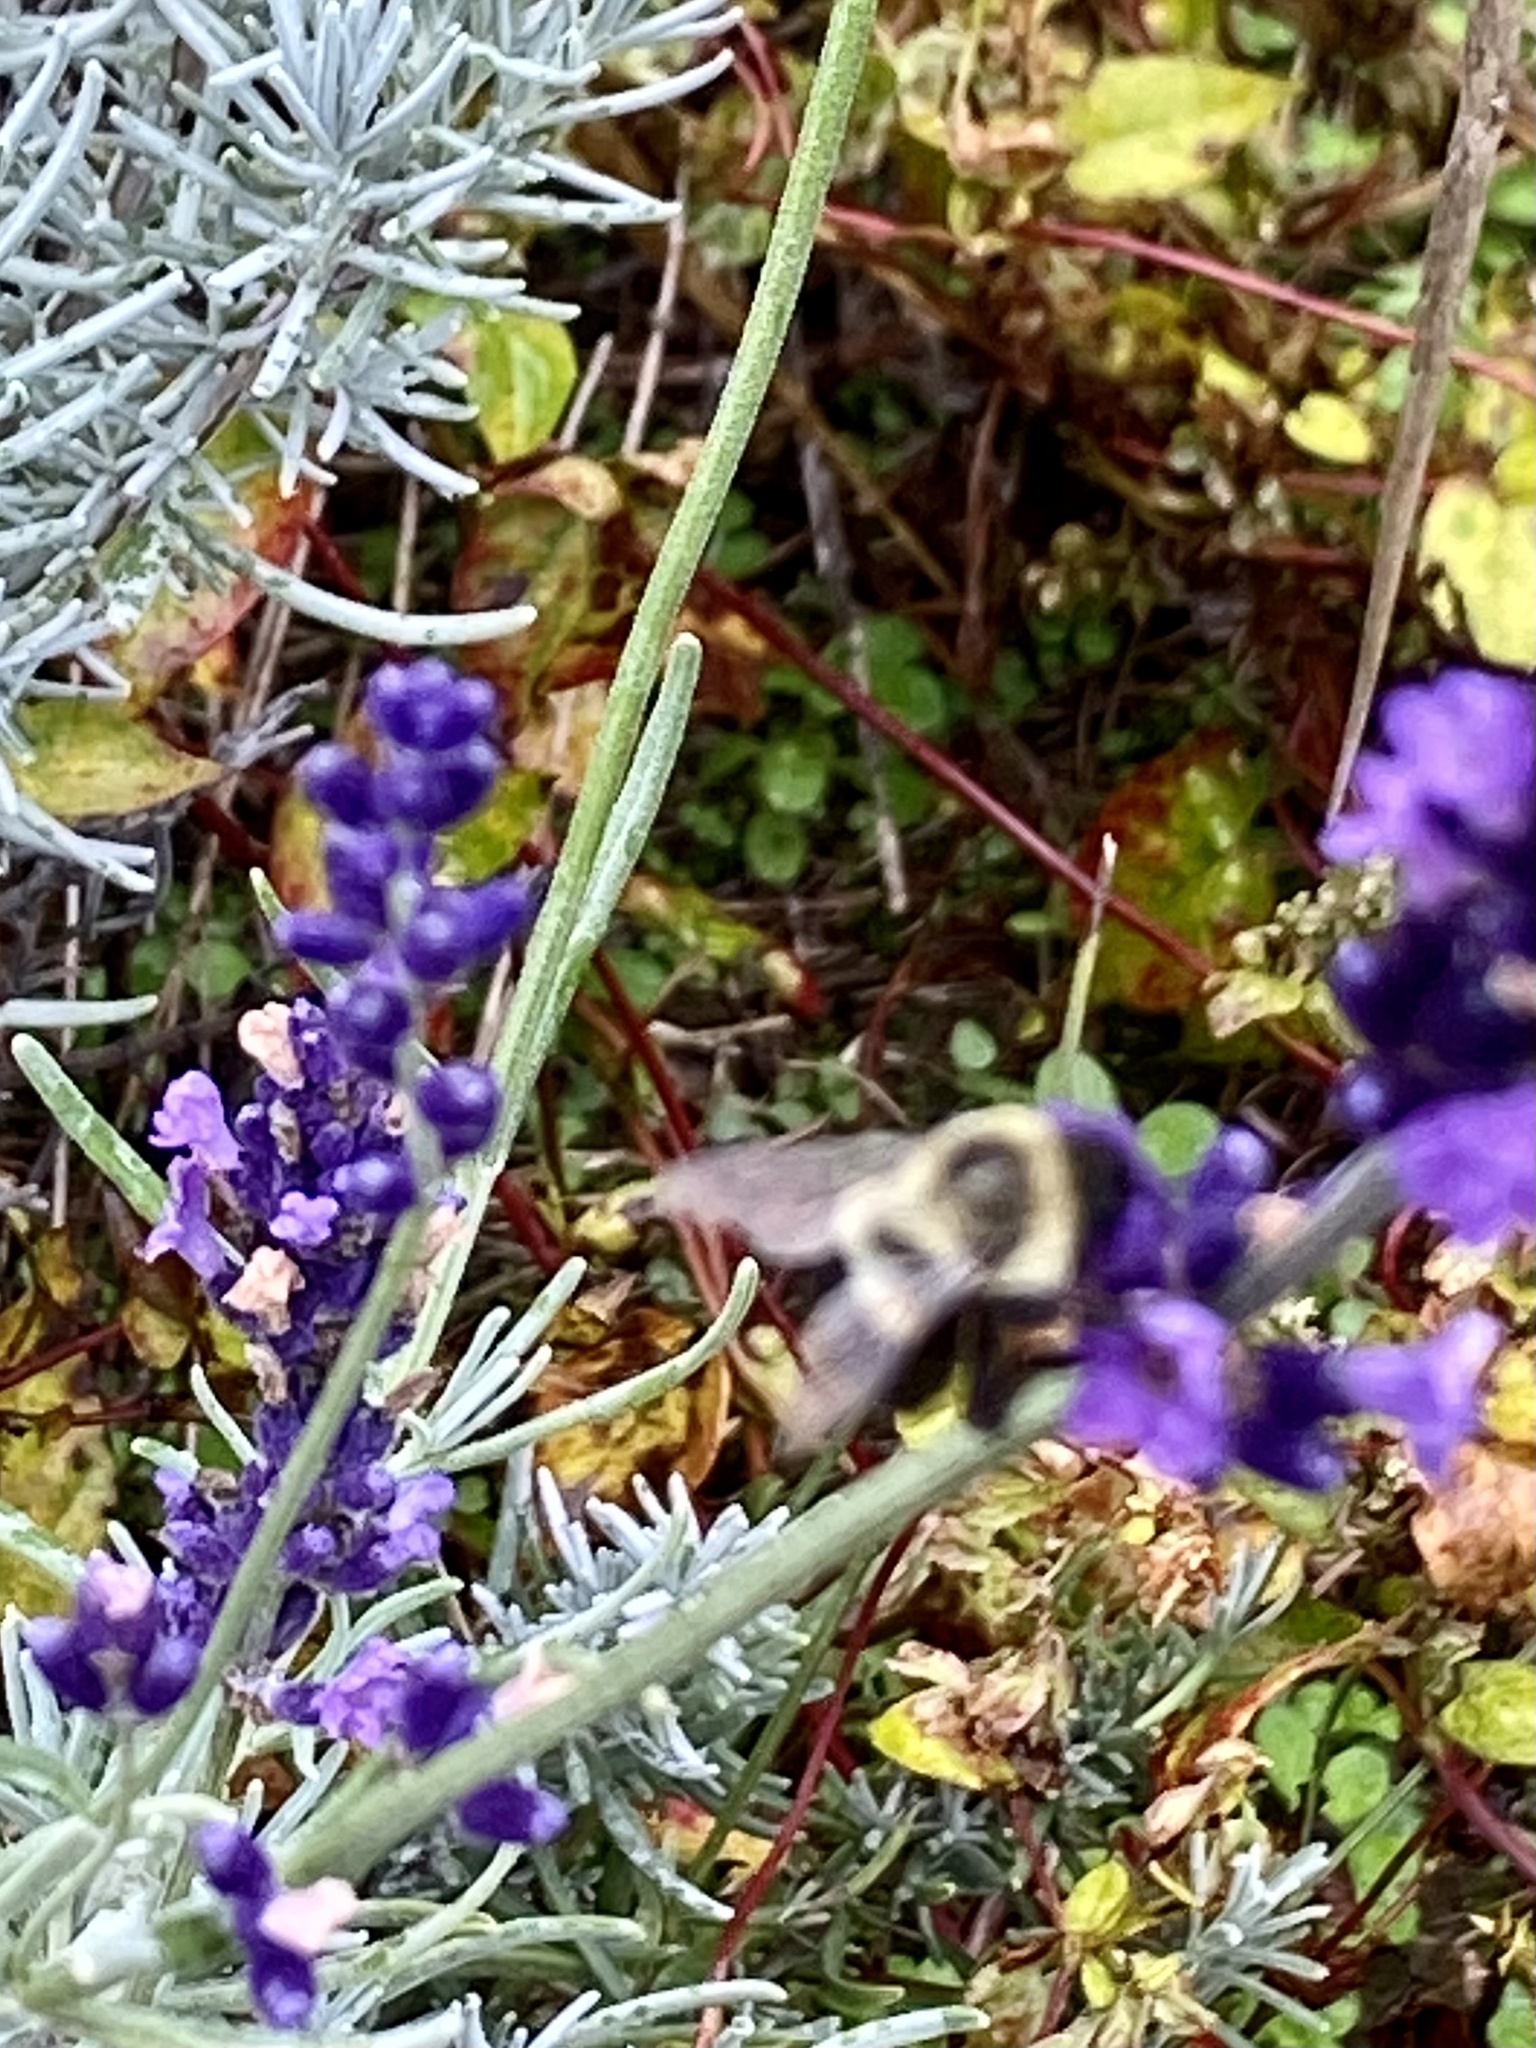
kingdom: Animalia
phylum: Arthropoda
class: Insecta
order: Hymenoptera
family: Apidae
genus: Bombus
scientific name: Bombus impatiens
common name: Common eastern bumble bee
